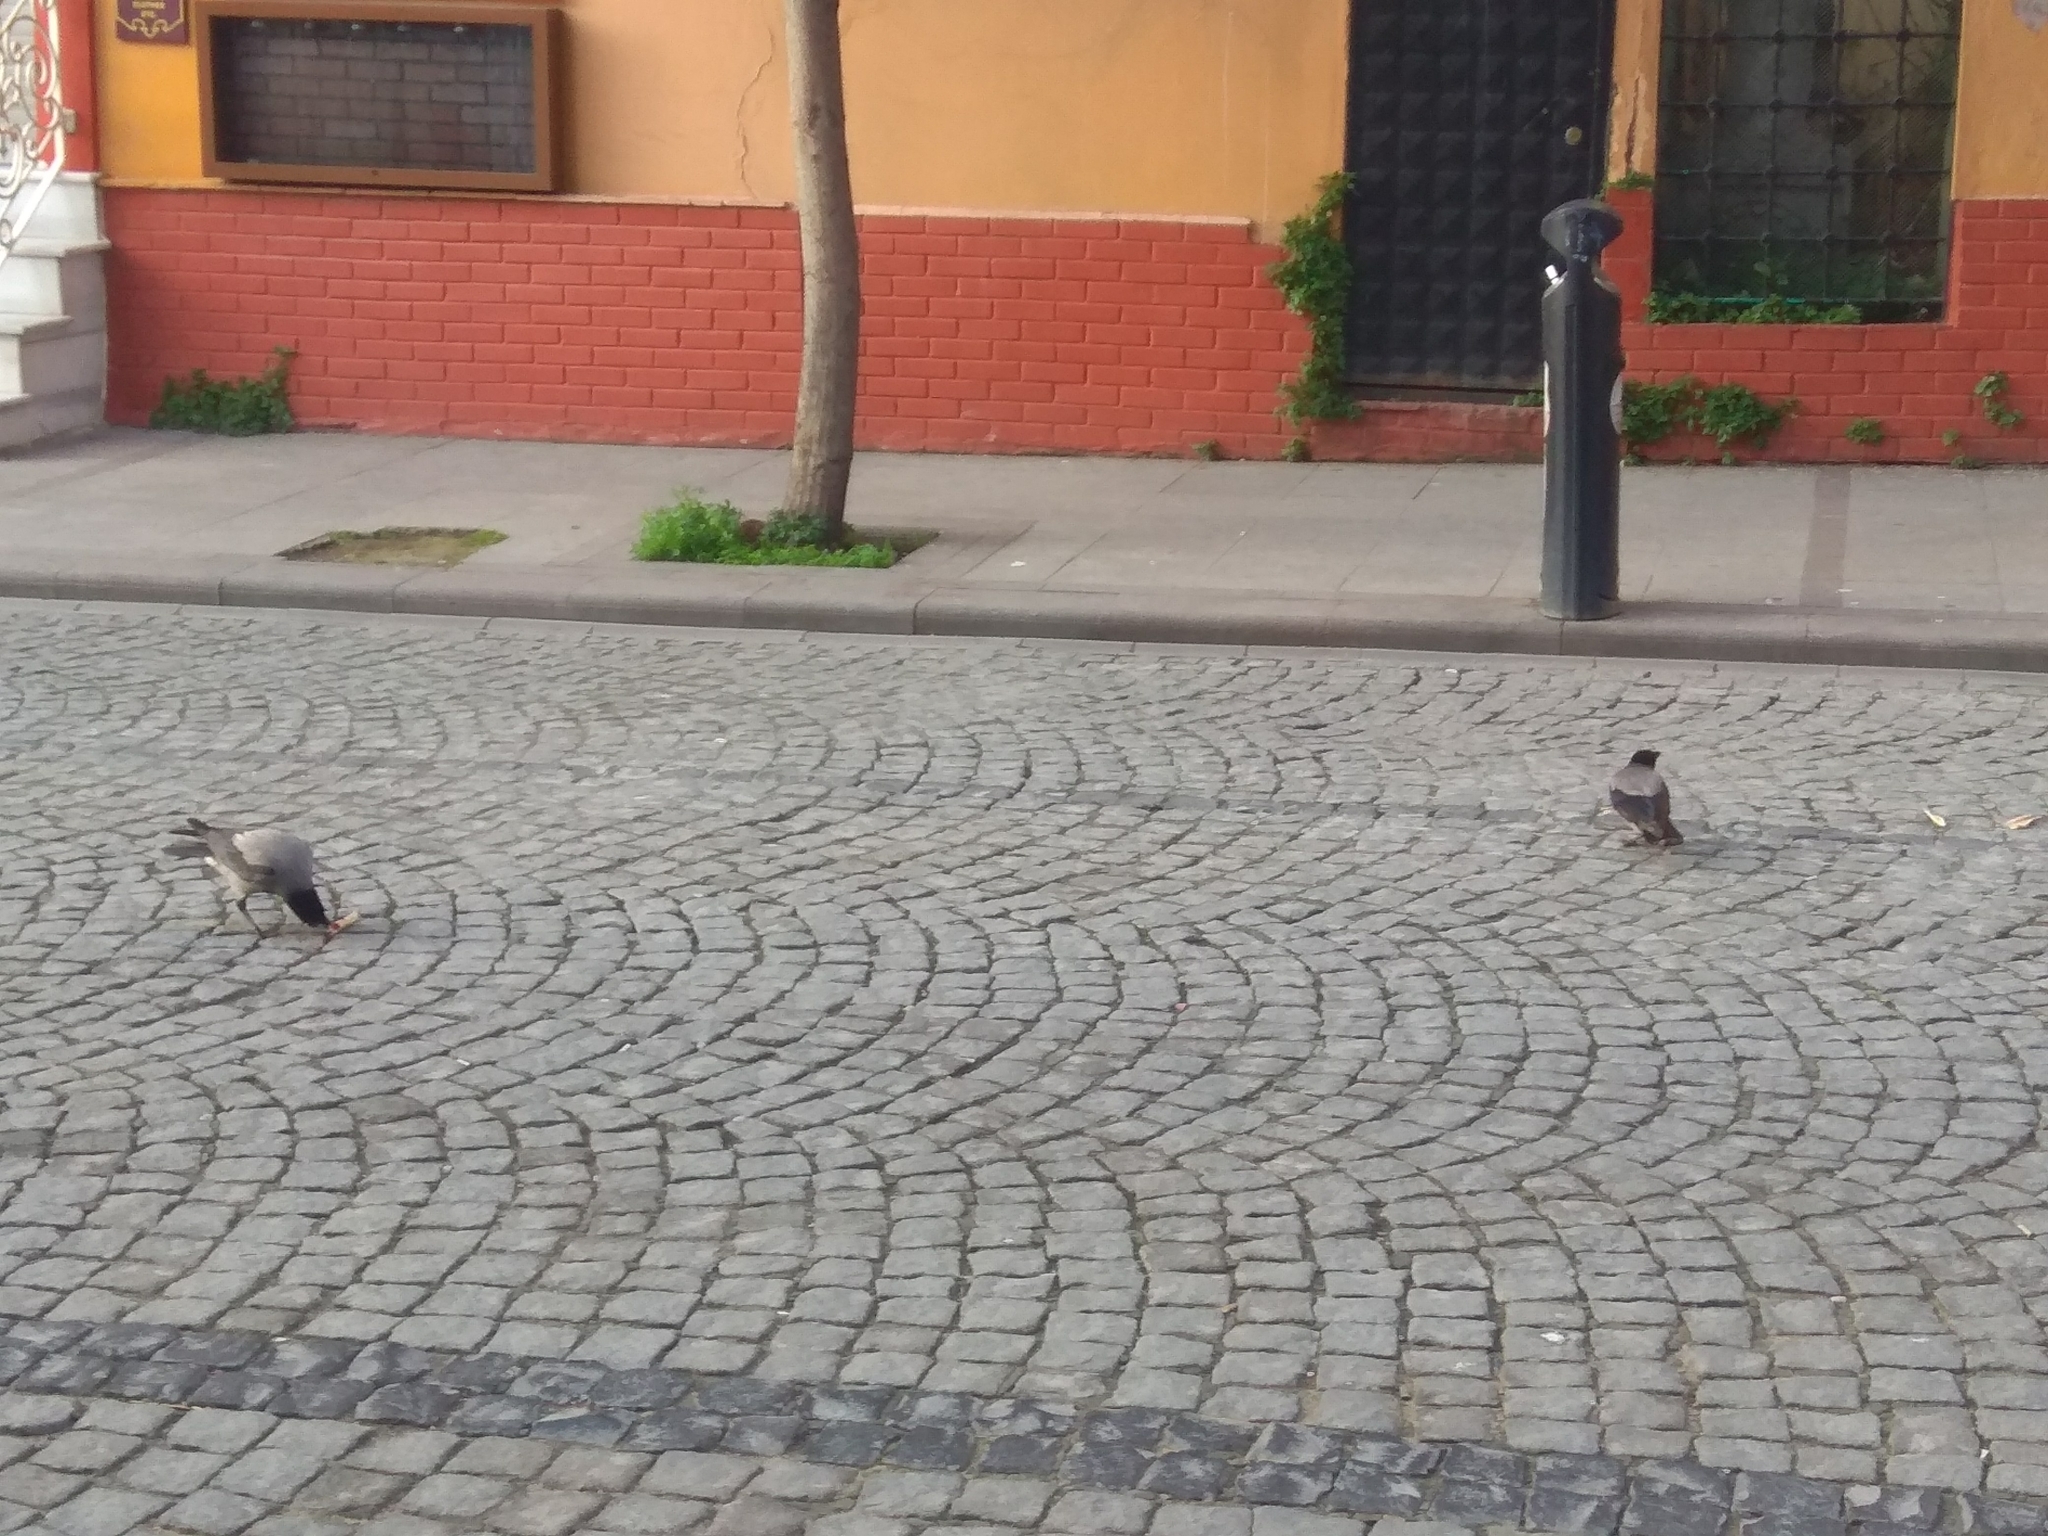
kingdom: Animalia
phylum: Chordata
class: Aves
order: Passeriformes
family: Corvidae
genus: Corvus
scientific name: Corvus cornix
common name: Hooded crow
